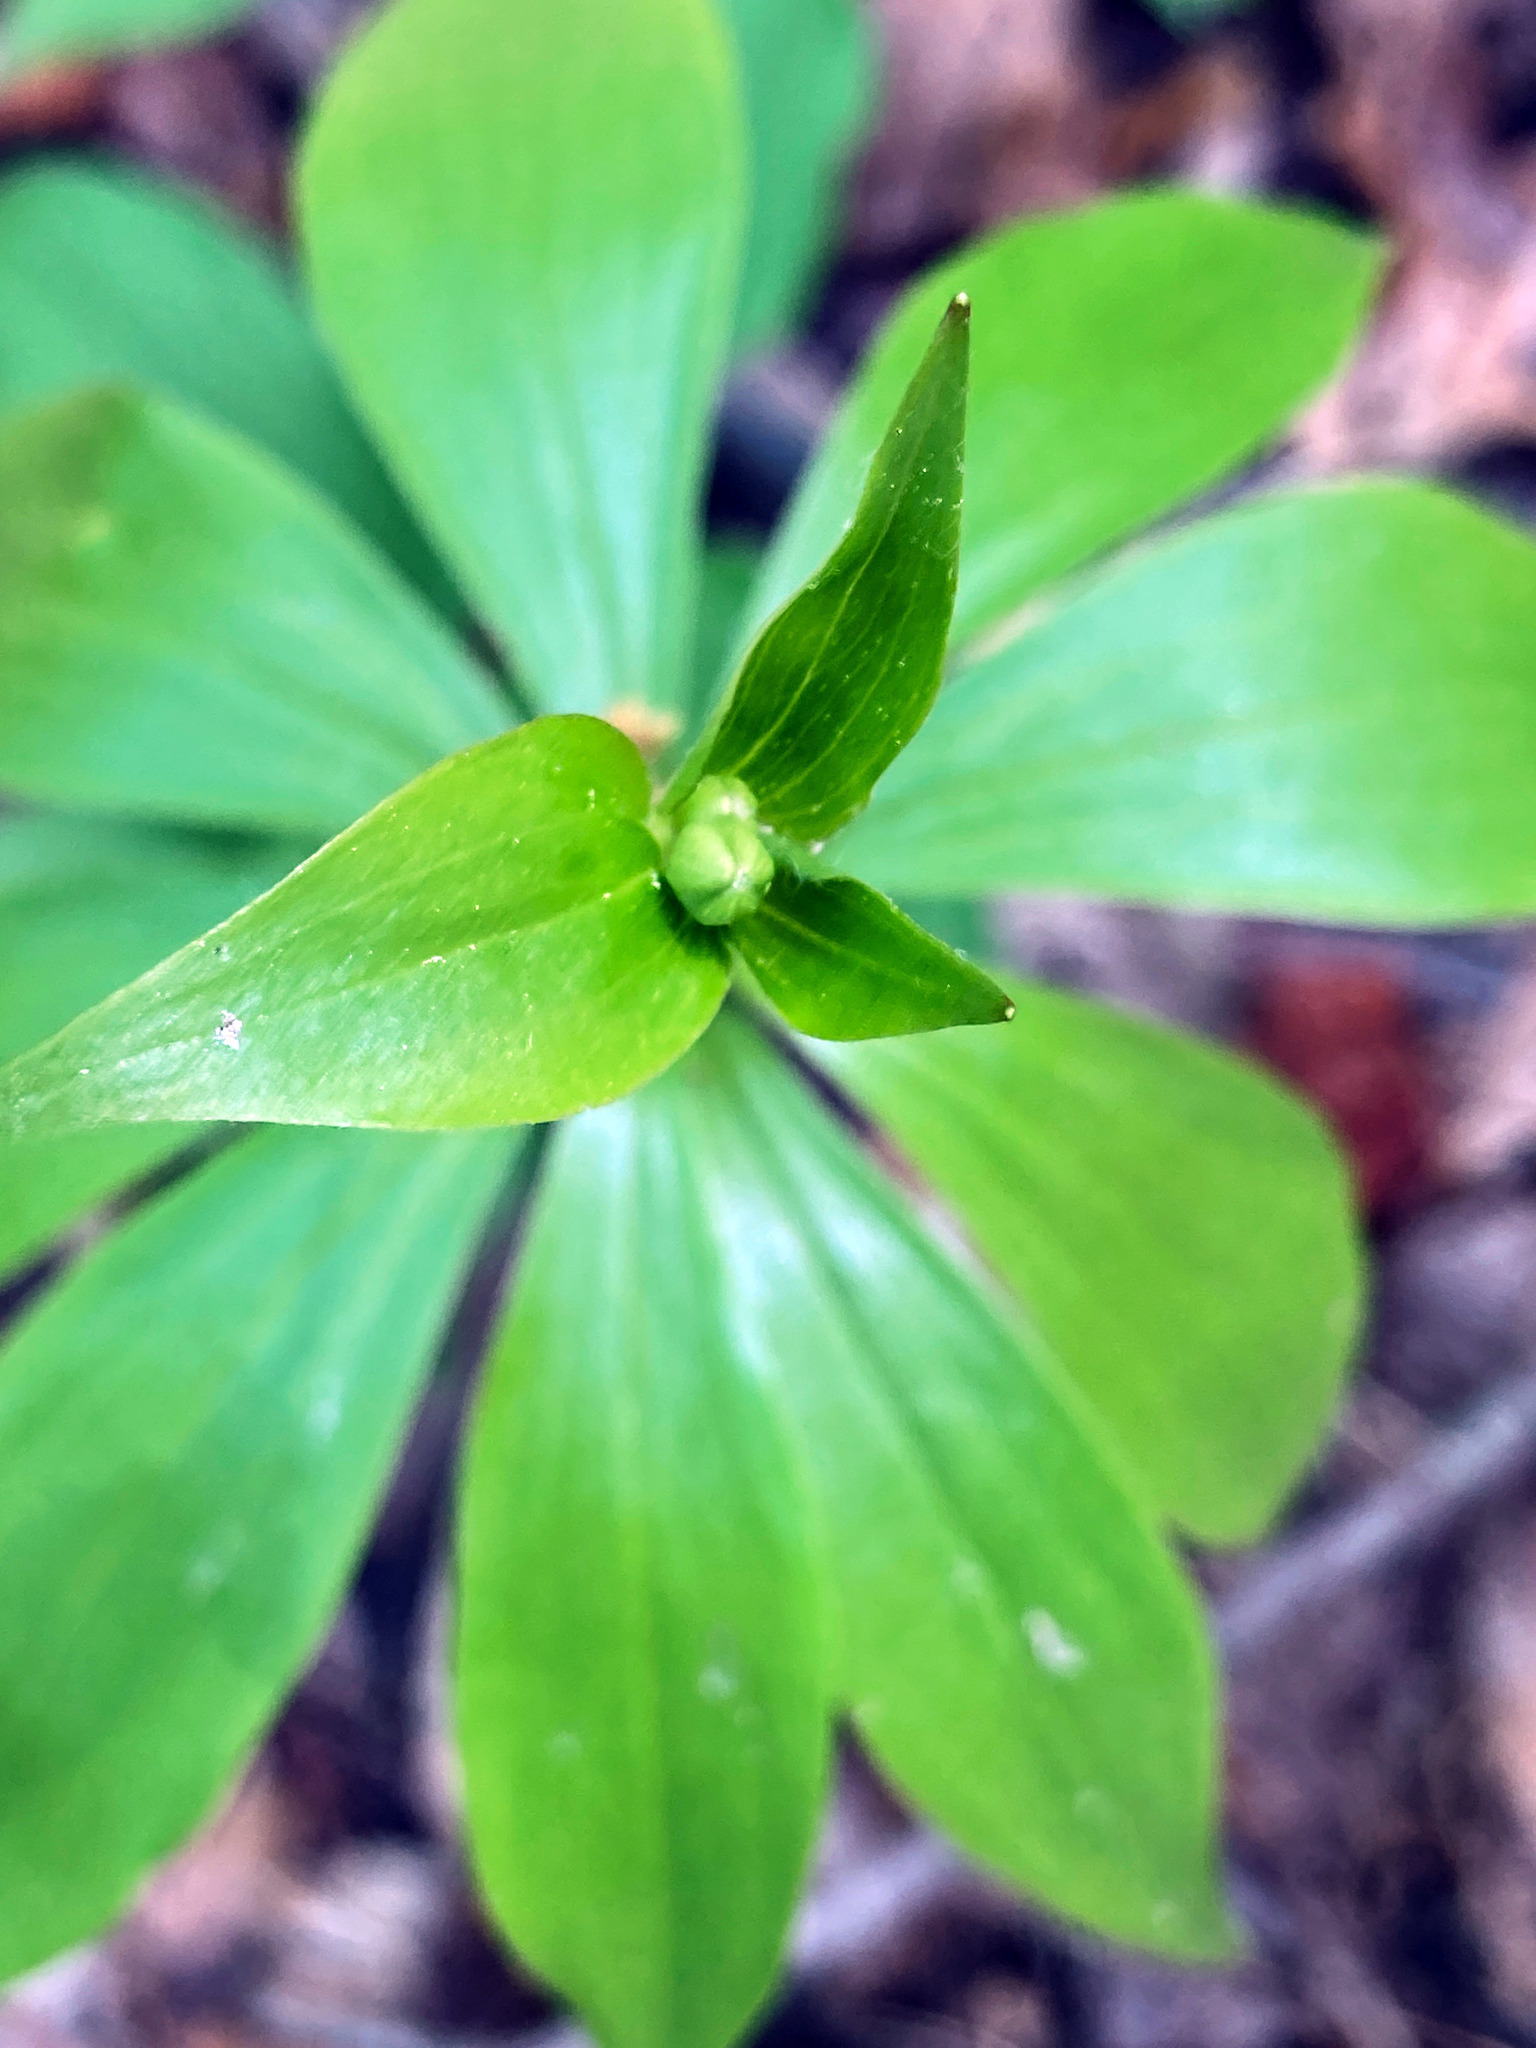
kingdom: Plantae
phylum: Tracheophyta
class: Liliopsida
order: Liliales
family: Liliaceae
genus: Medeola
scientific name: Medeola virginiana
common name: Indian cucumber-root
